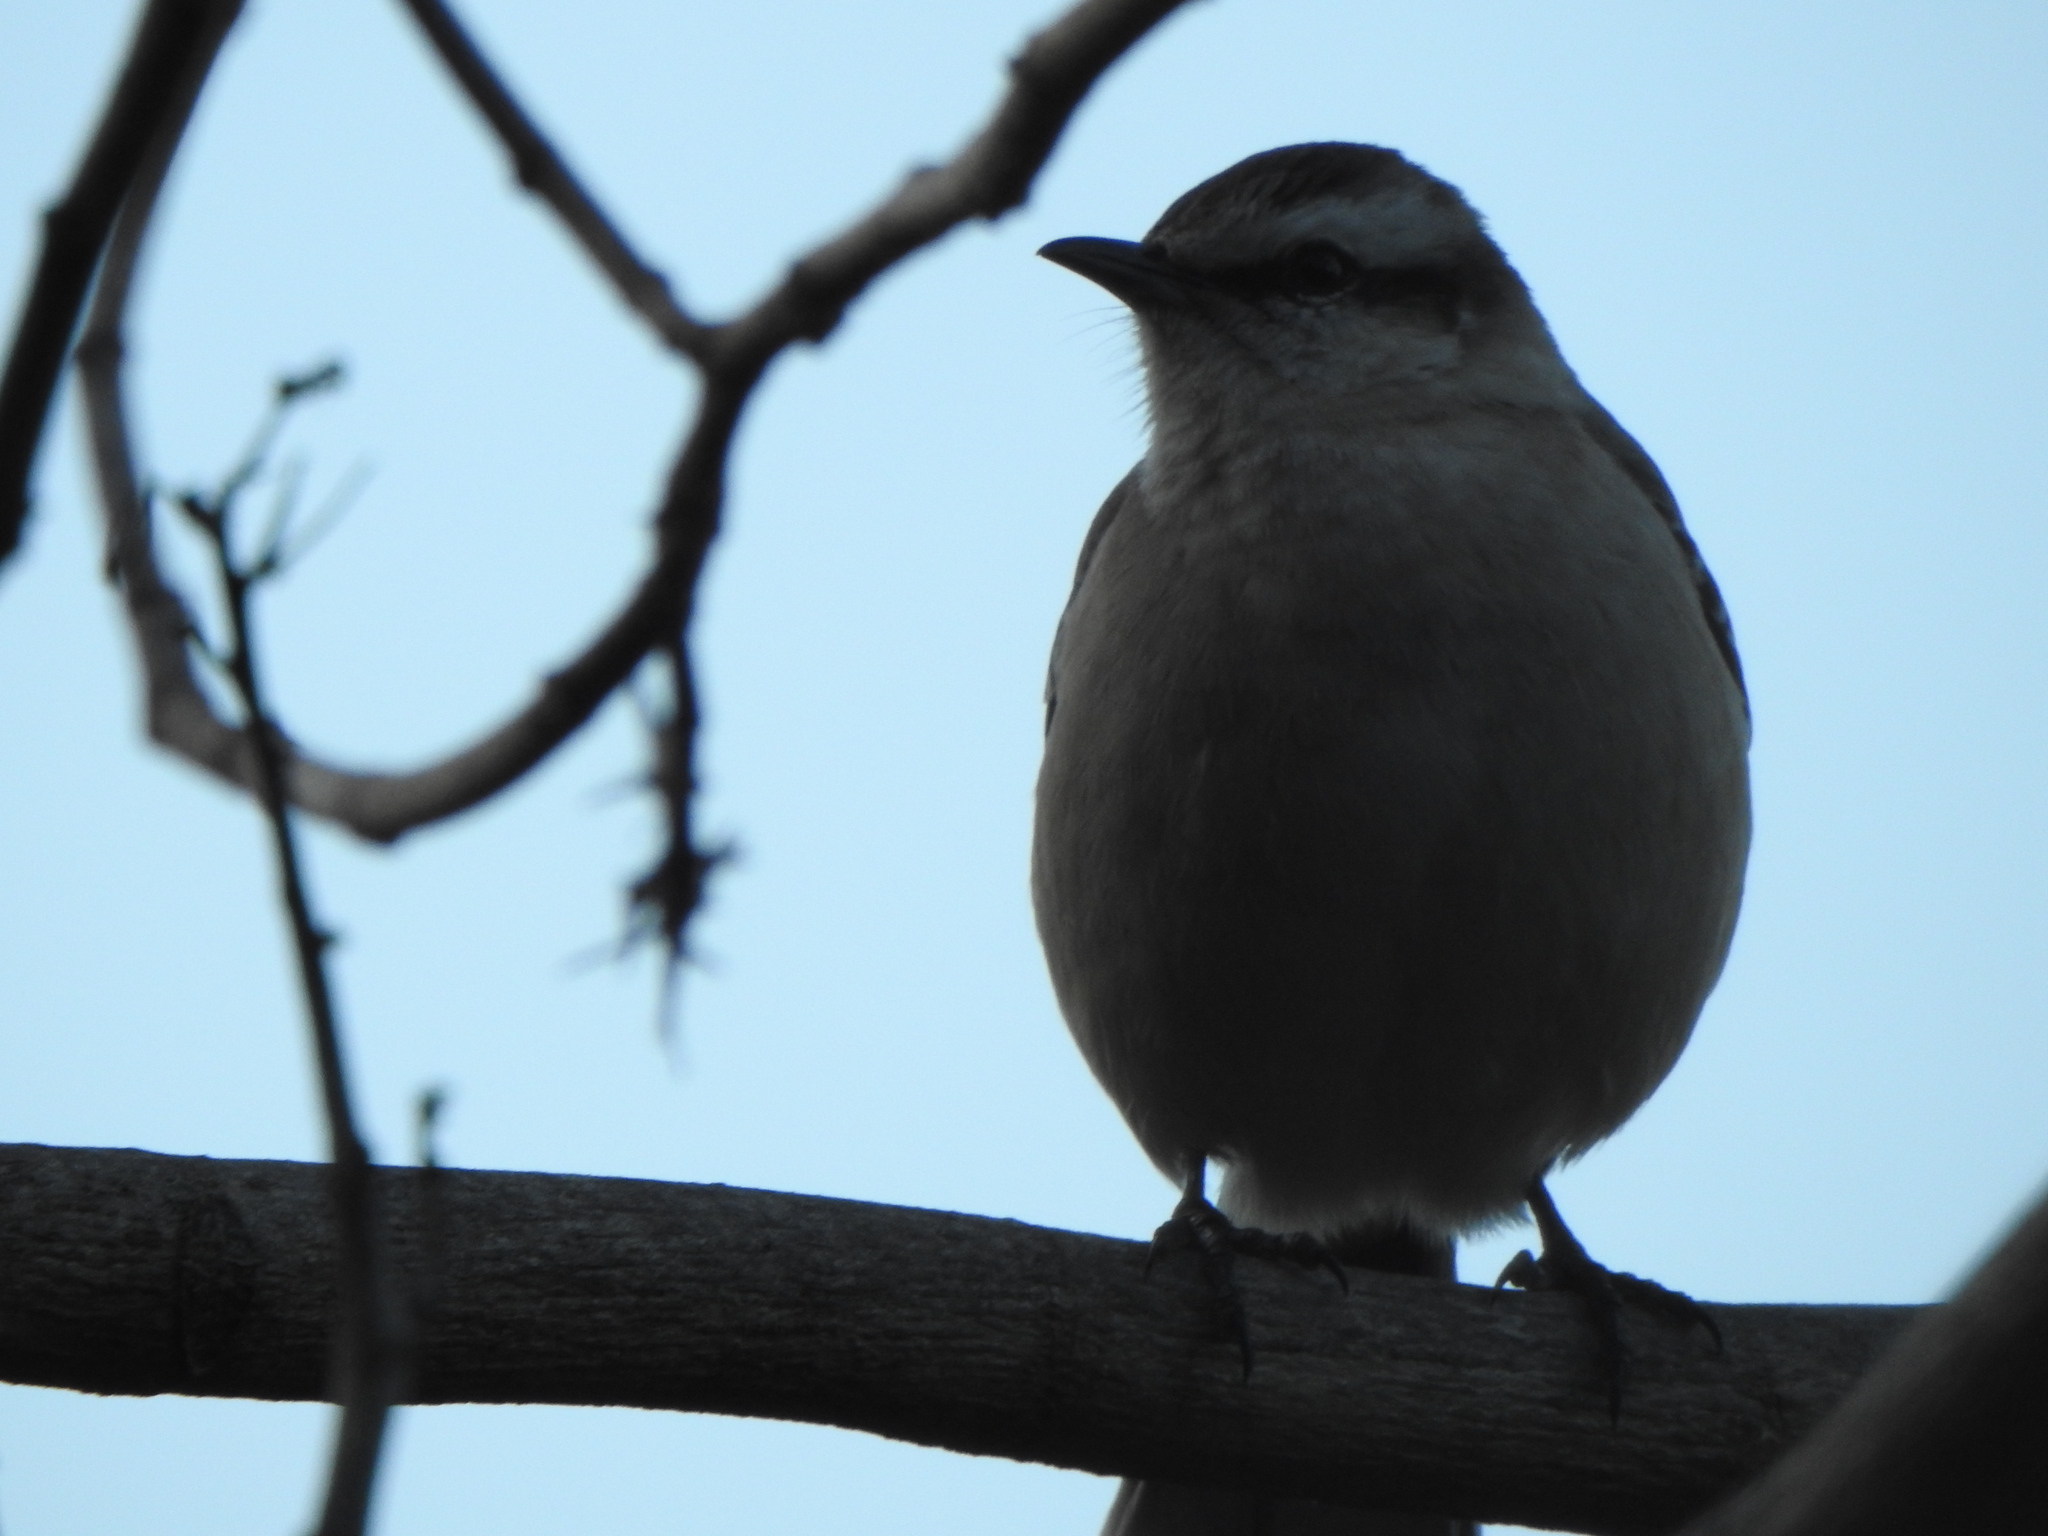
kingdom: Animalia
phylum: Chordata
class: Aves
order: Passeriformes
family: Mimidae
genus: Mimus
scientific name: Mimus saturninus
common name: Chalk-browed mockingbird
